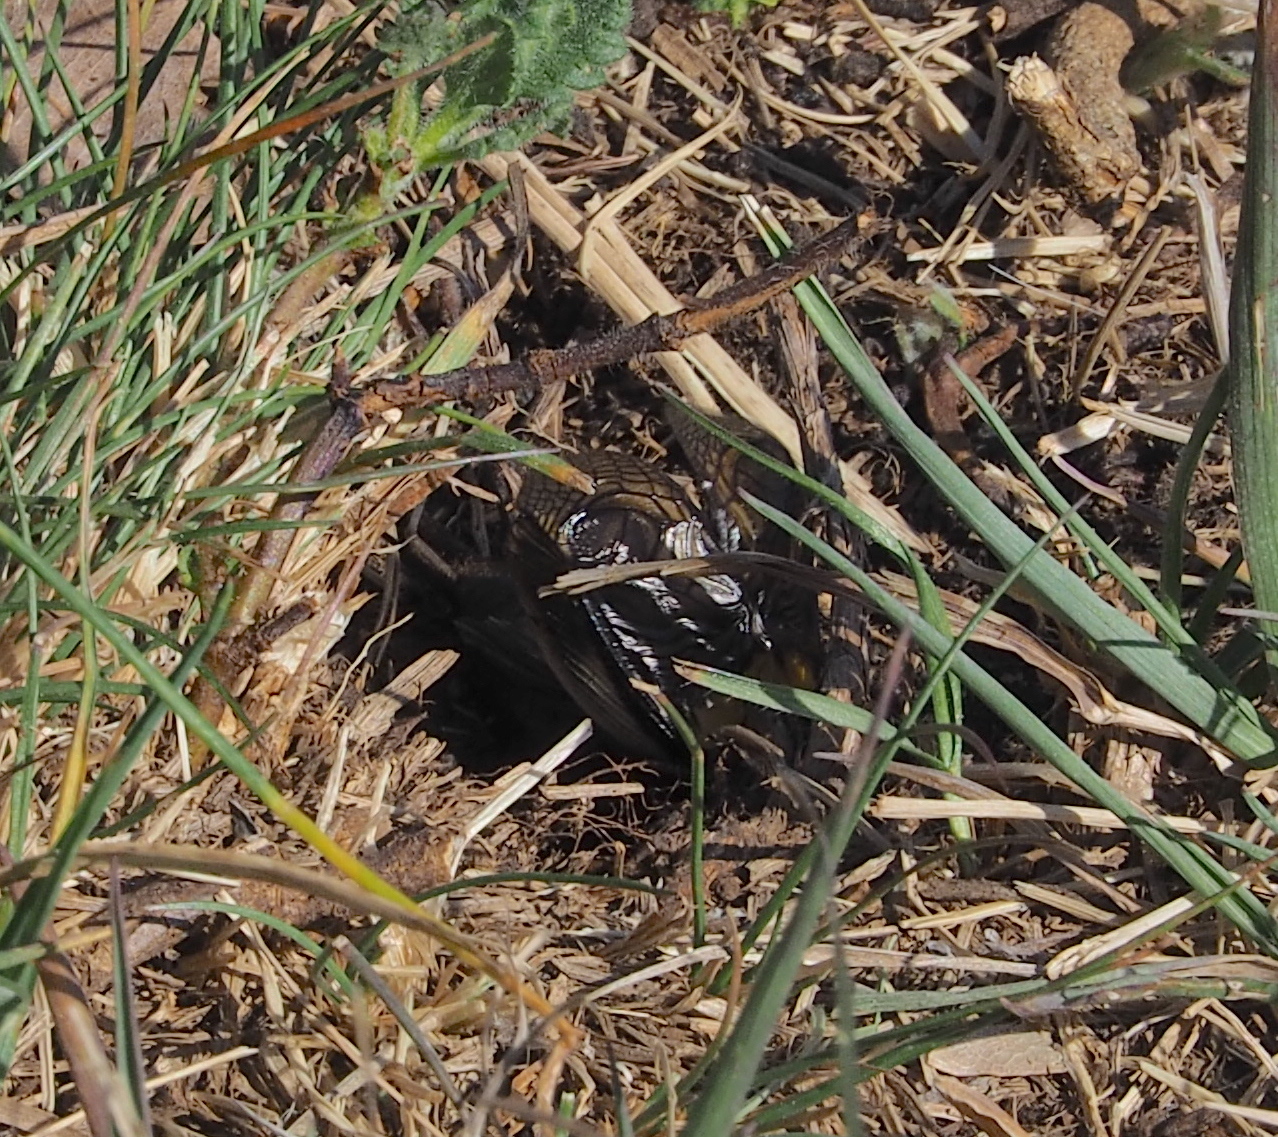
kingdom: Animalia
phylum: Arthropoda
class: Insecta
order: Orthoptera
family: Gryllidae
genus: Gryllus
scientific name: Gryllus campestris
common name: Field cricket
